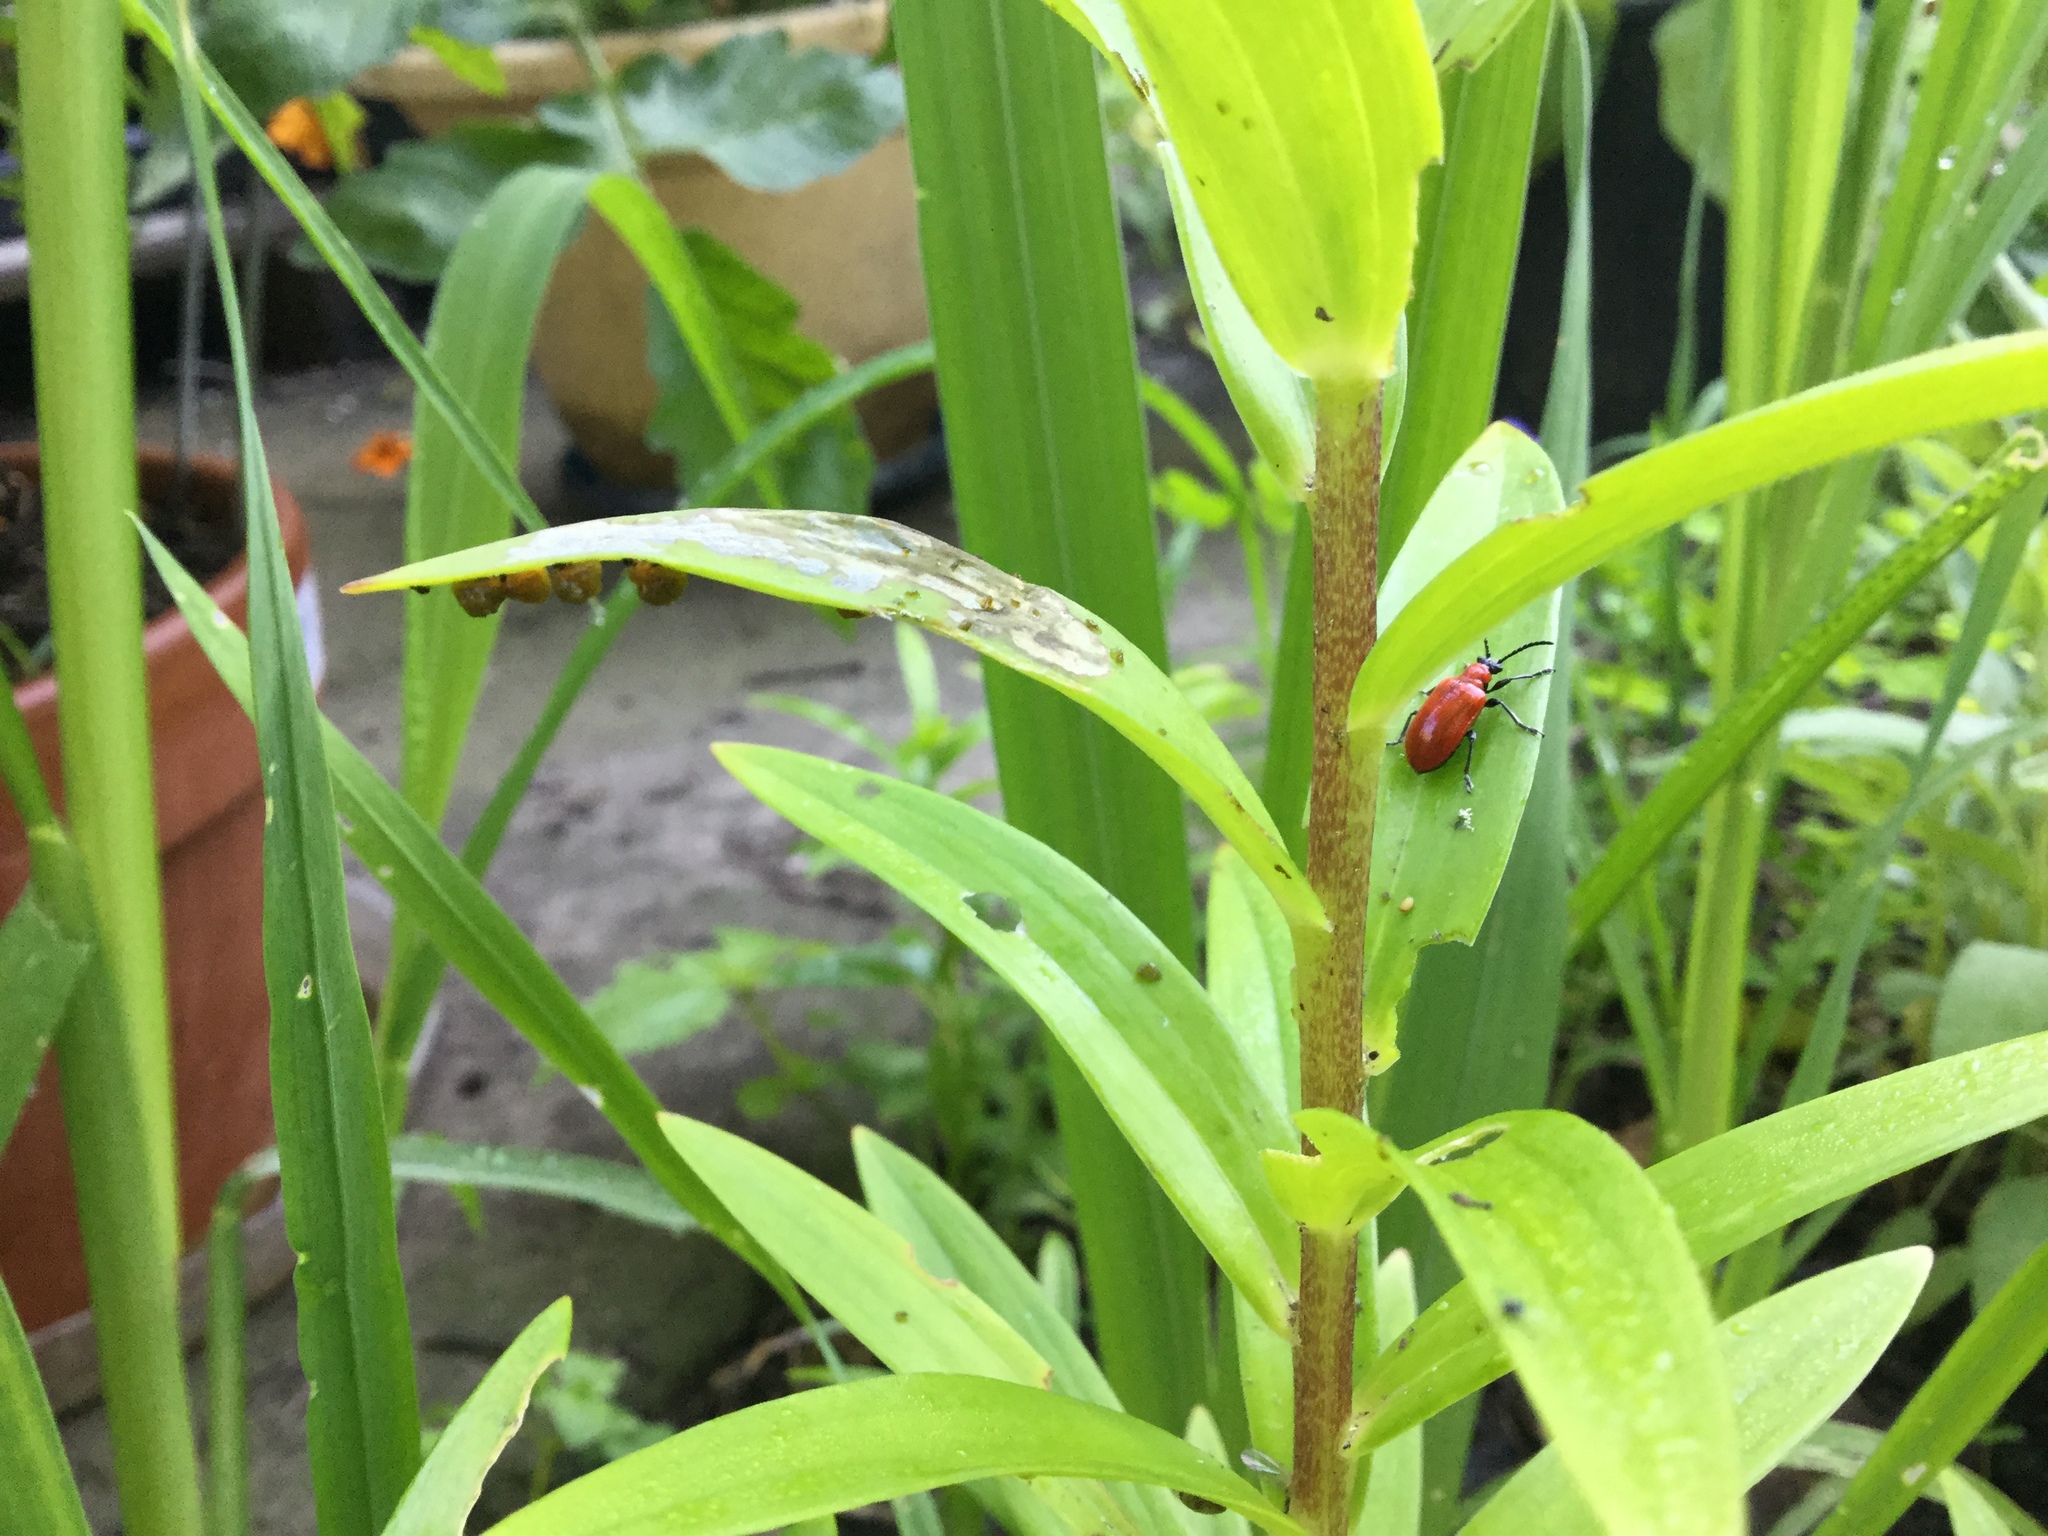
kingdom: Animalia
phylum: Arthropoda
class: Insecta
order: Coleoptera
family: Chrysomelidae
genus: Lilioceris
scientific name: Lilioceris lilii
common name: Lily beetle
